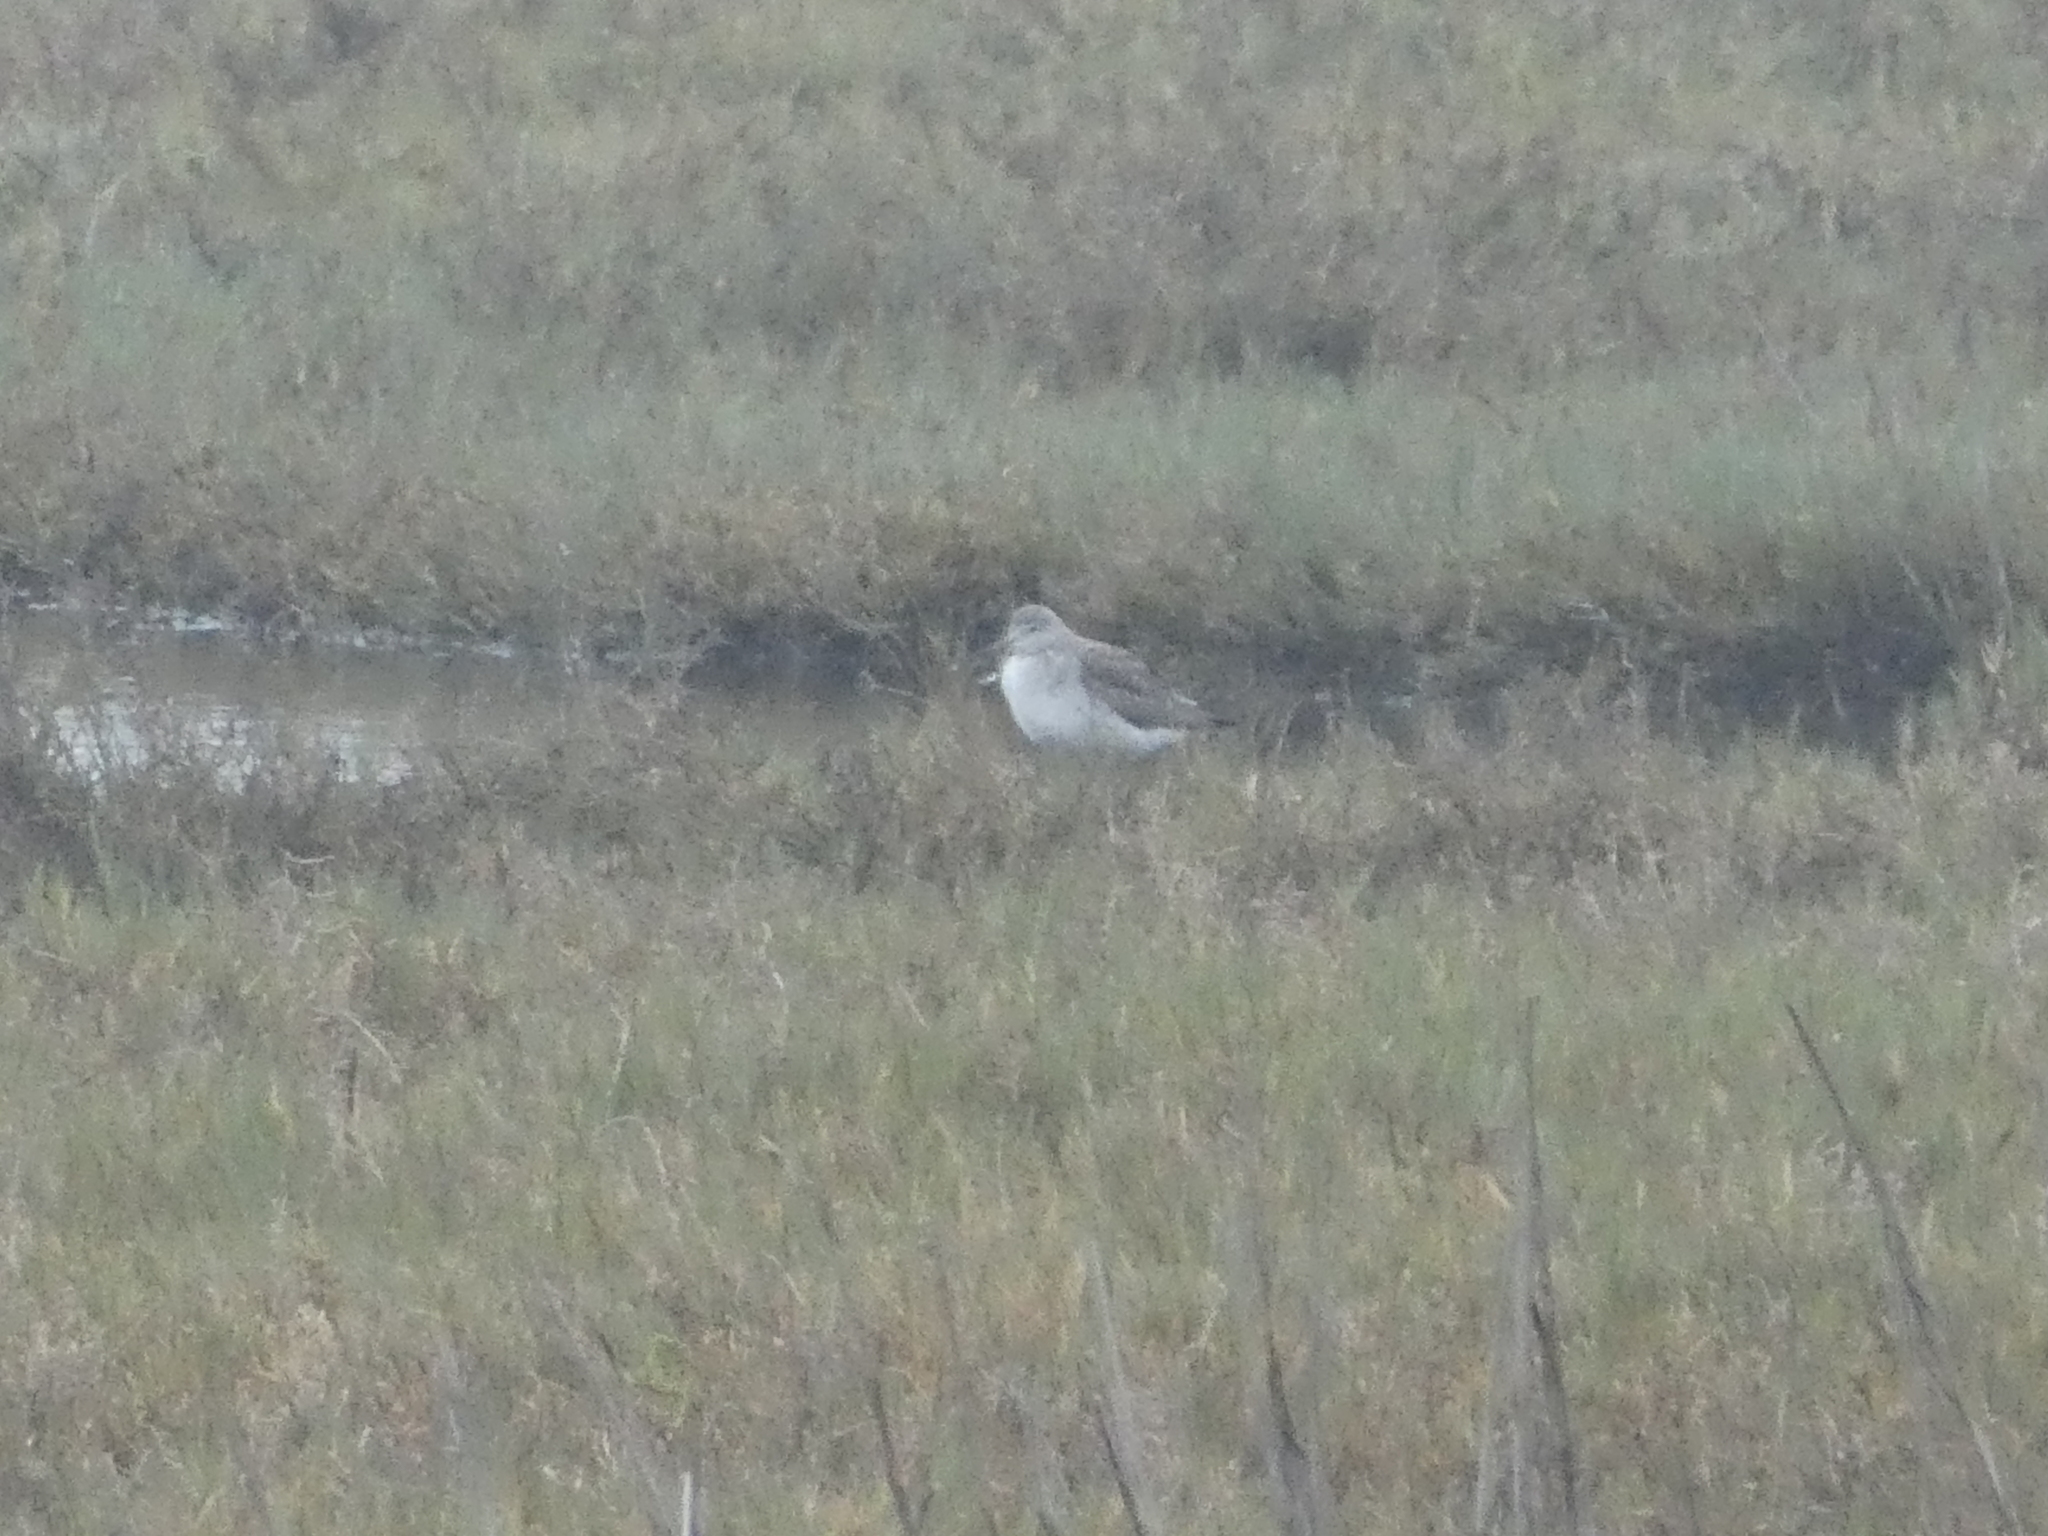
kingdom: Animalia
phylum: Chordata
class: Aves
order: Charadriiformes
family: Scolopacidae
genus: Tringa
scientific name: Tringa melanoleuca
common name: Greater yellowlegs
